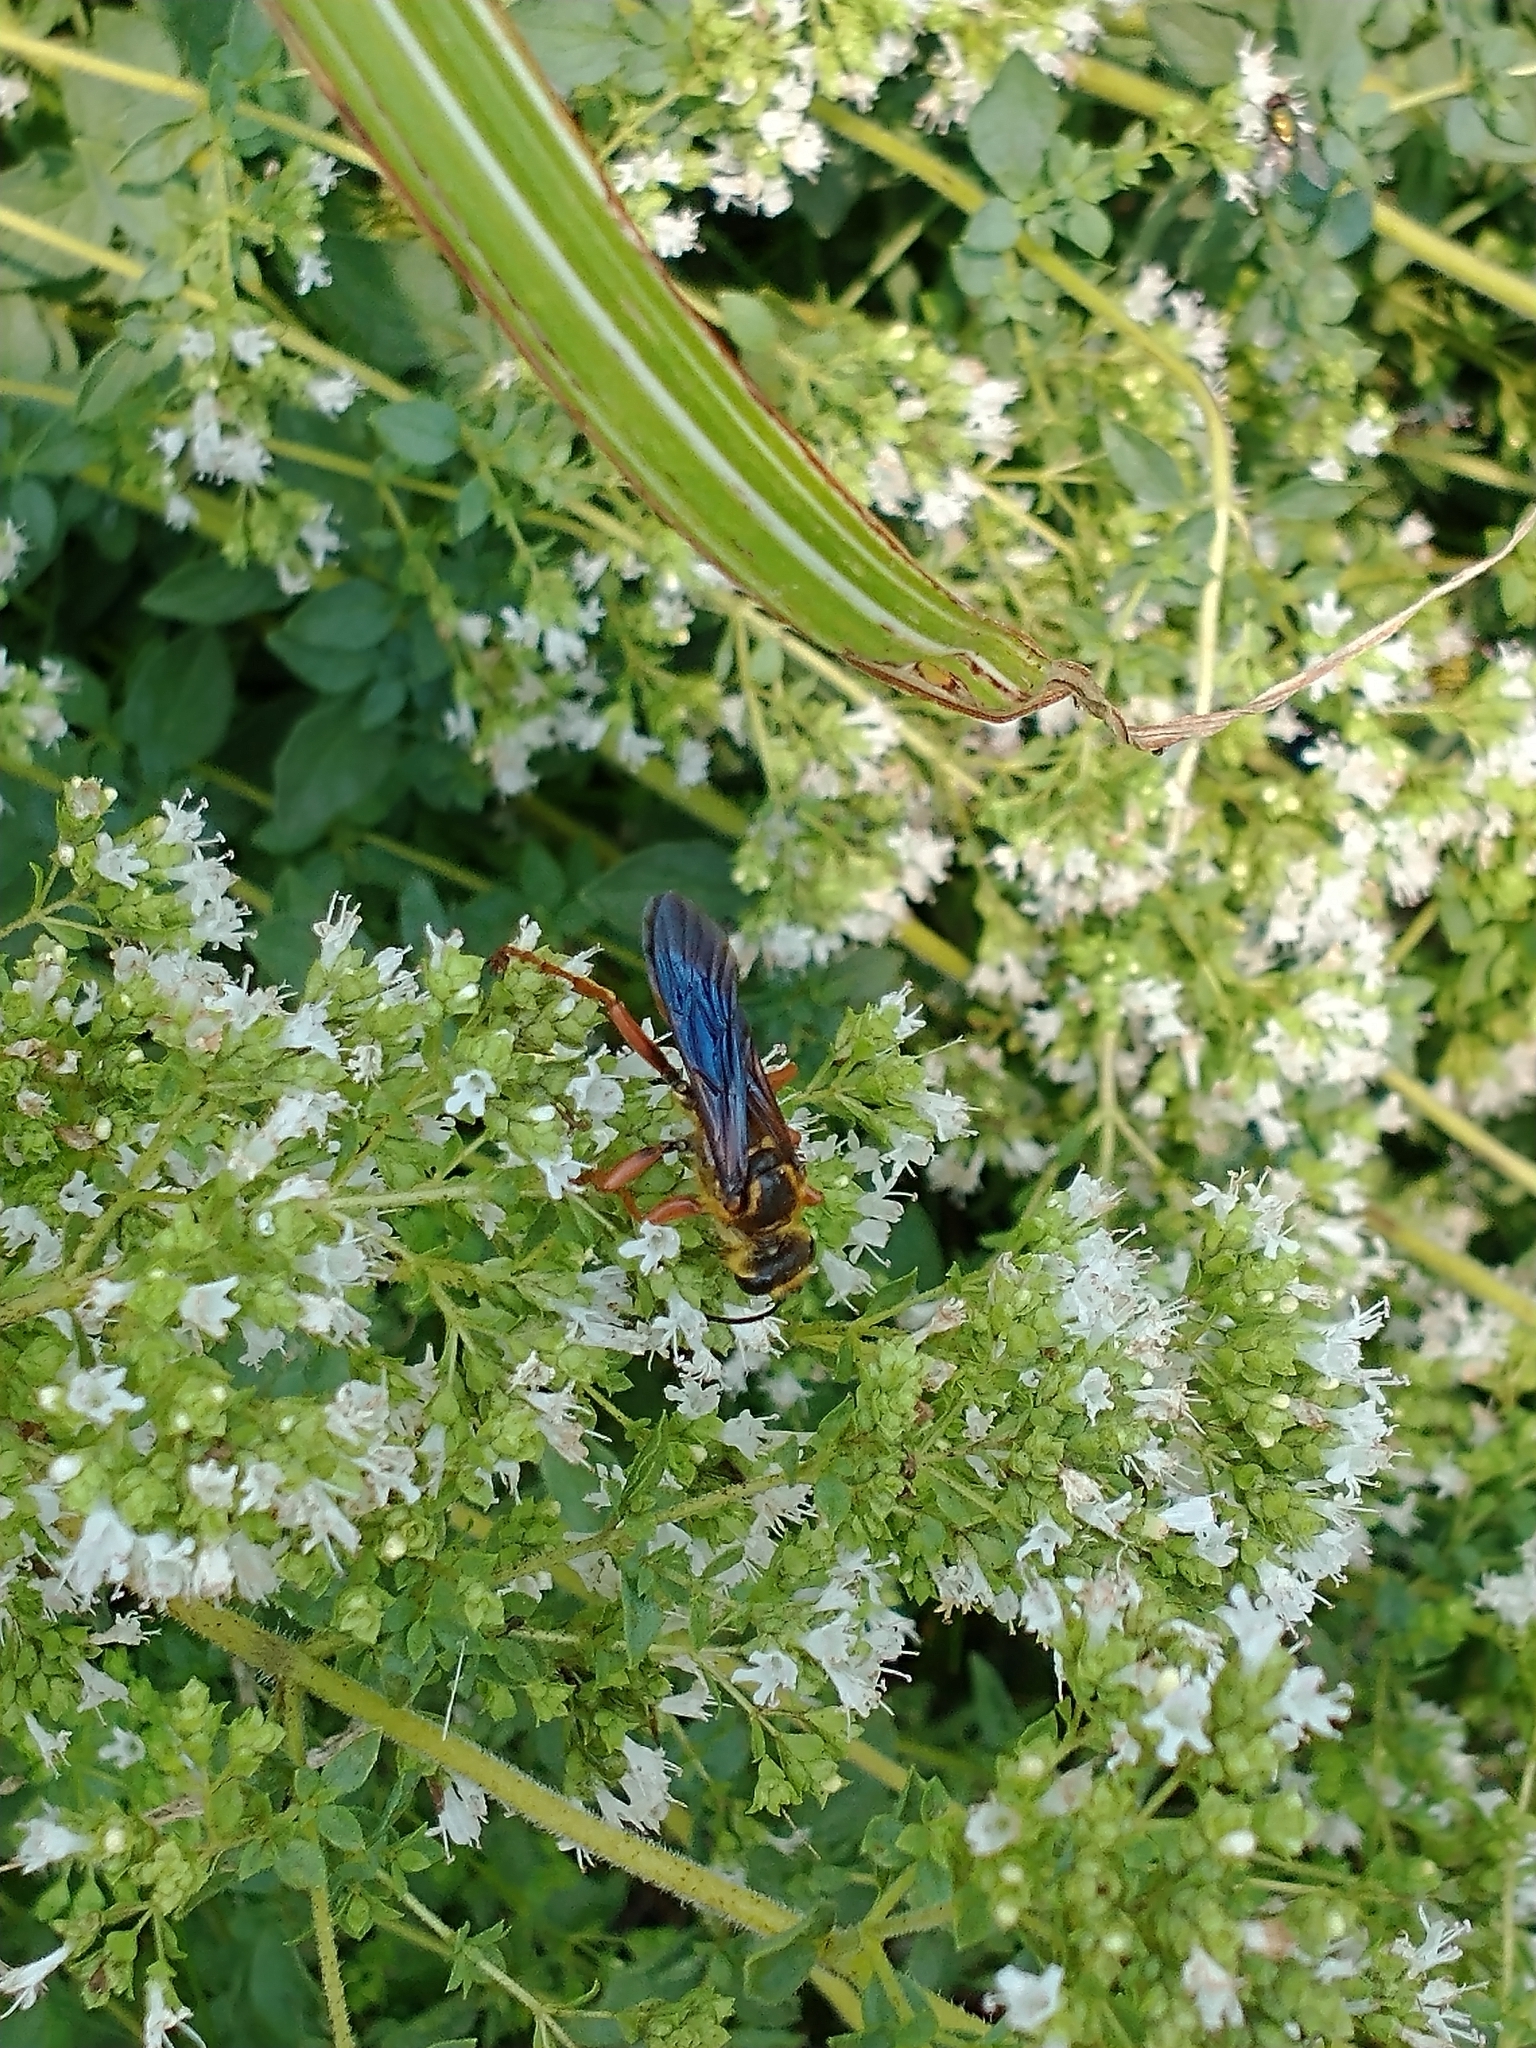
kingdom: Animalia
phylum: Arthropoda
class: Insecta
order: Hymenoptera
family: Sphecidae
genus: Sphex
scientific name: Sphex ichneumoneus
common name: Great golden digger wasp
